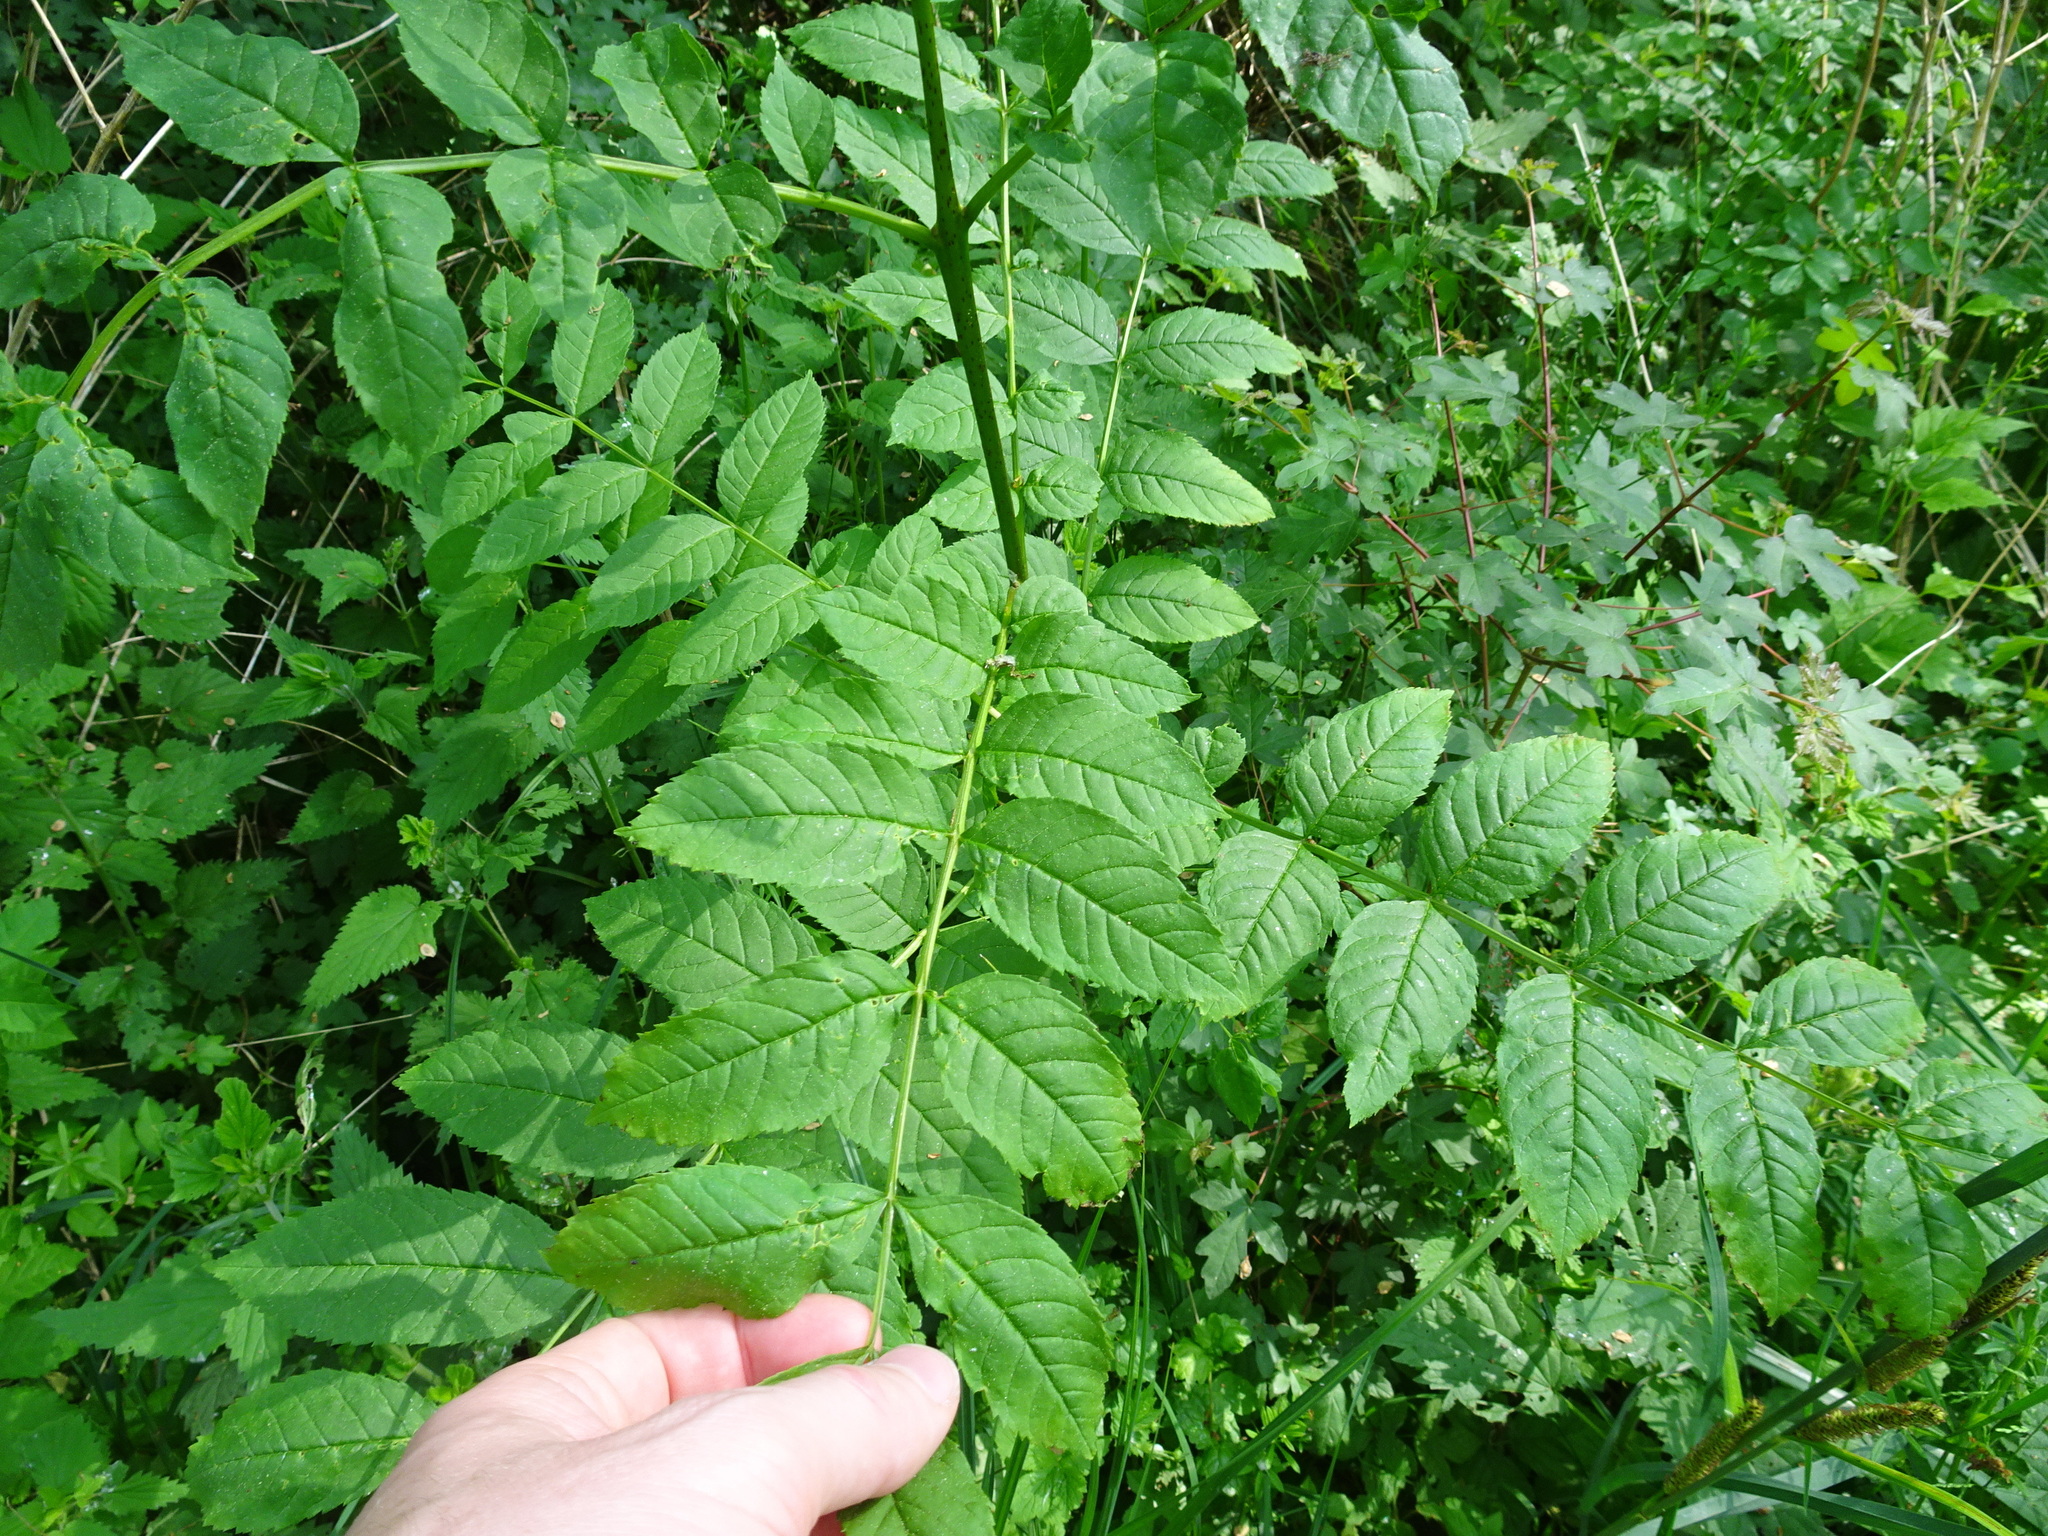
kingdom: Plantae
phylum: Tracheophyta
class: Magnoliopsida
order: Lamiales
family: Oleaceae
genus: Fraxinus
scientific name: Fraxinus excelsior
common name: European ash
